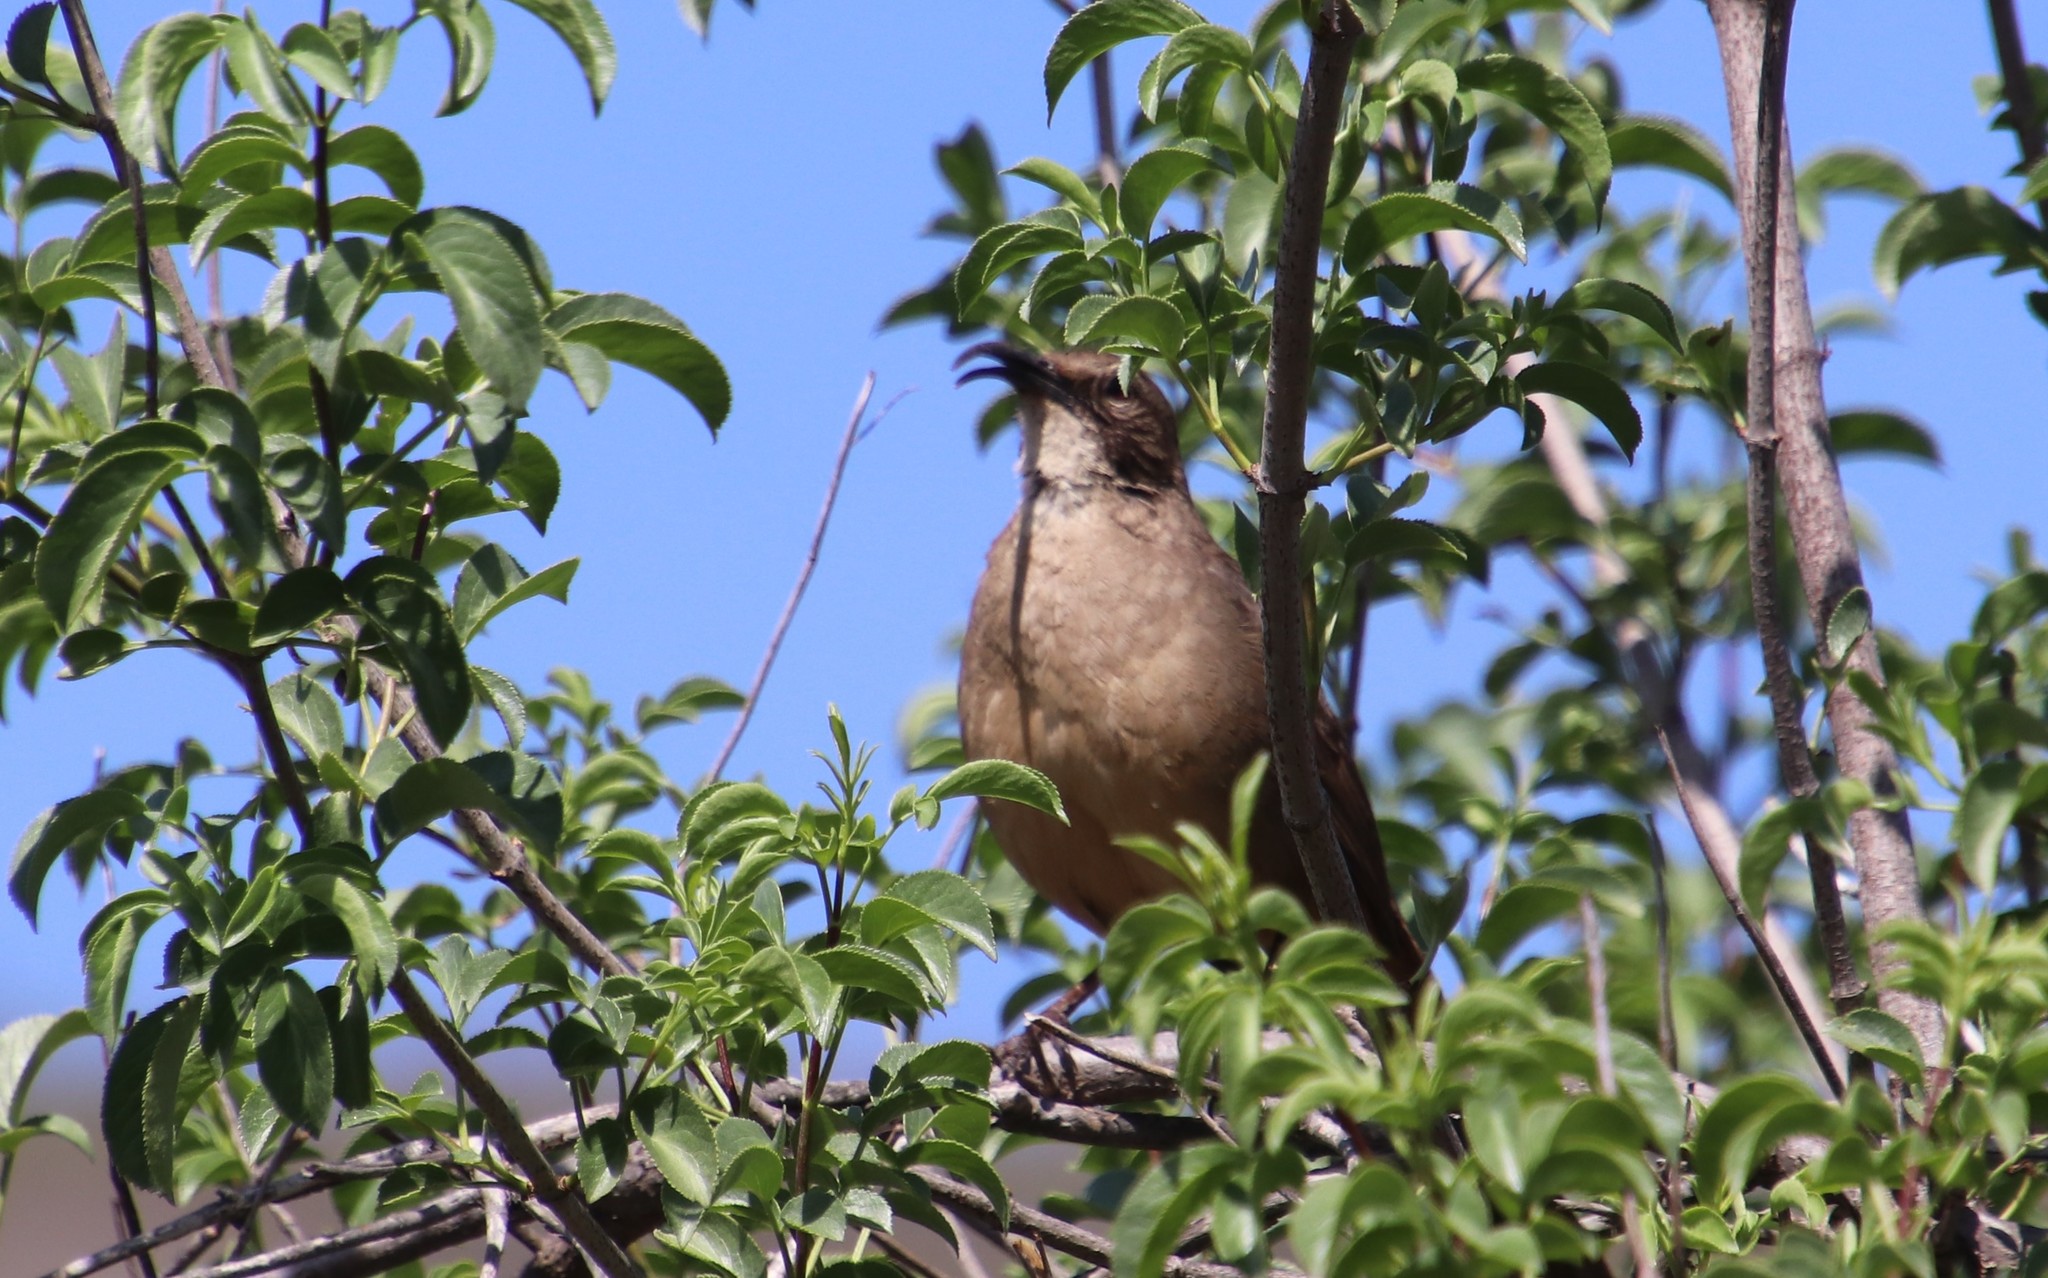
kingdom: Animalia
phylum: Chordata
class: Aves
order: Passeriformes
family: Mimidae
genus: Toxostoma
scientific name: Toxostoma redivivum
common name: California thrasher
